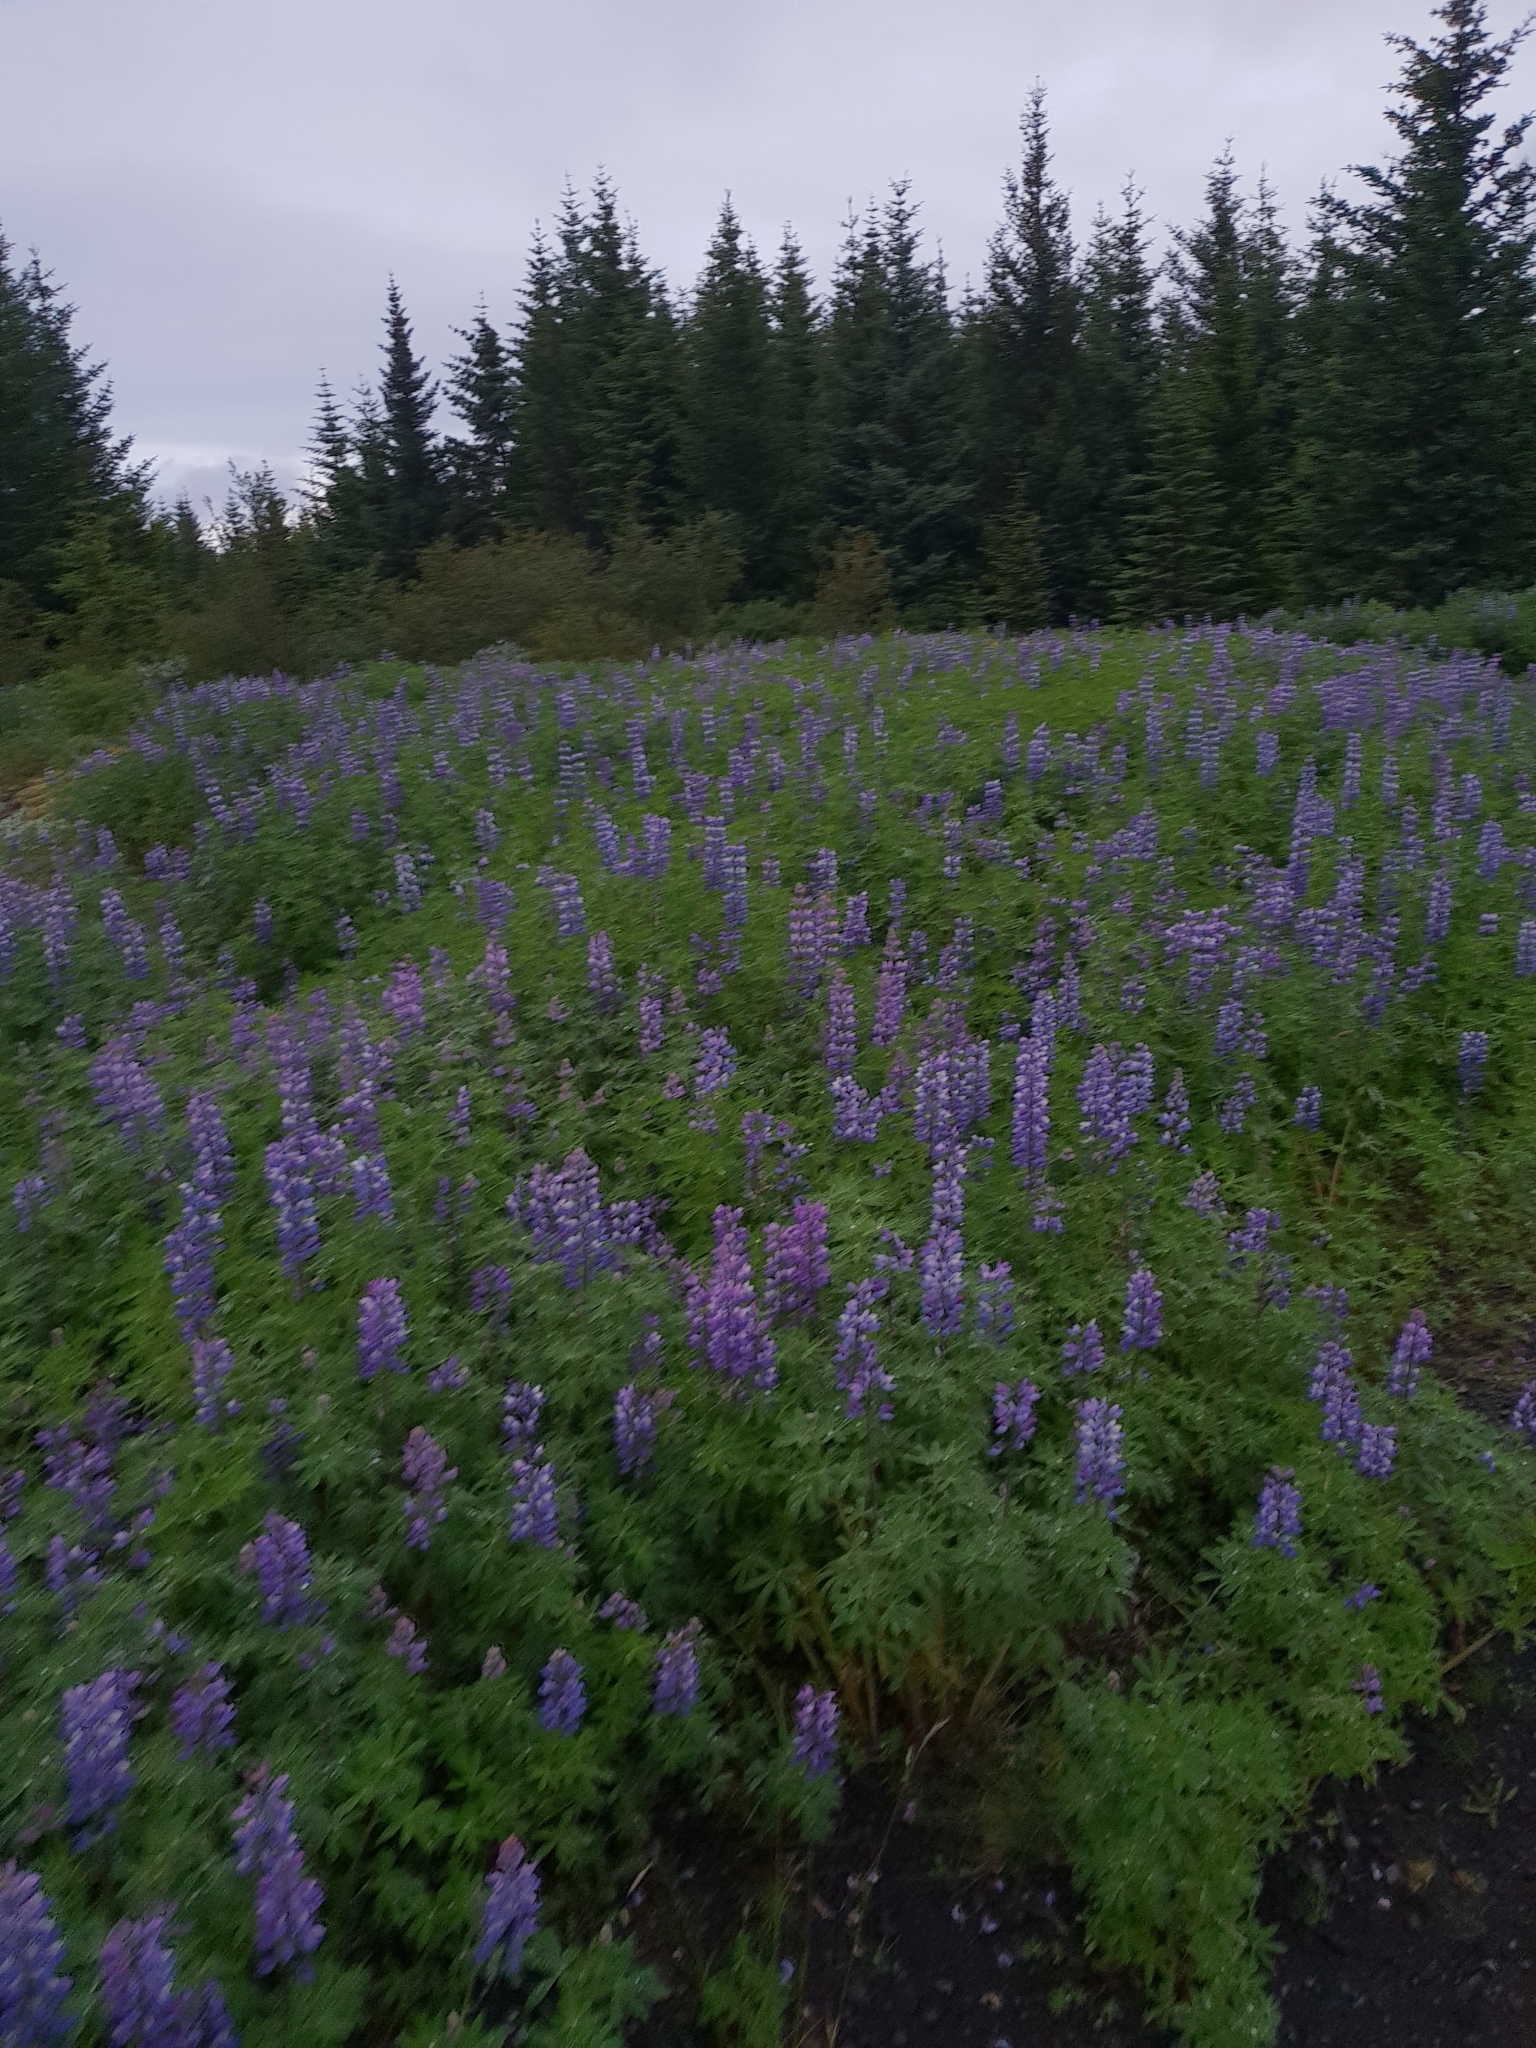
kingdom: Plantae
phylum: Tracheophyta
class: Magnoliopsida
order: Fabales
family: Fabaceae
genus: Lupinus
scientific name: Lupinus nootkatensis
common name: Nootka lupine
